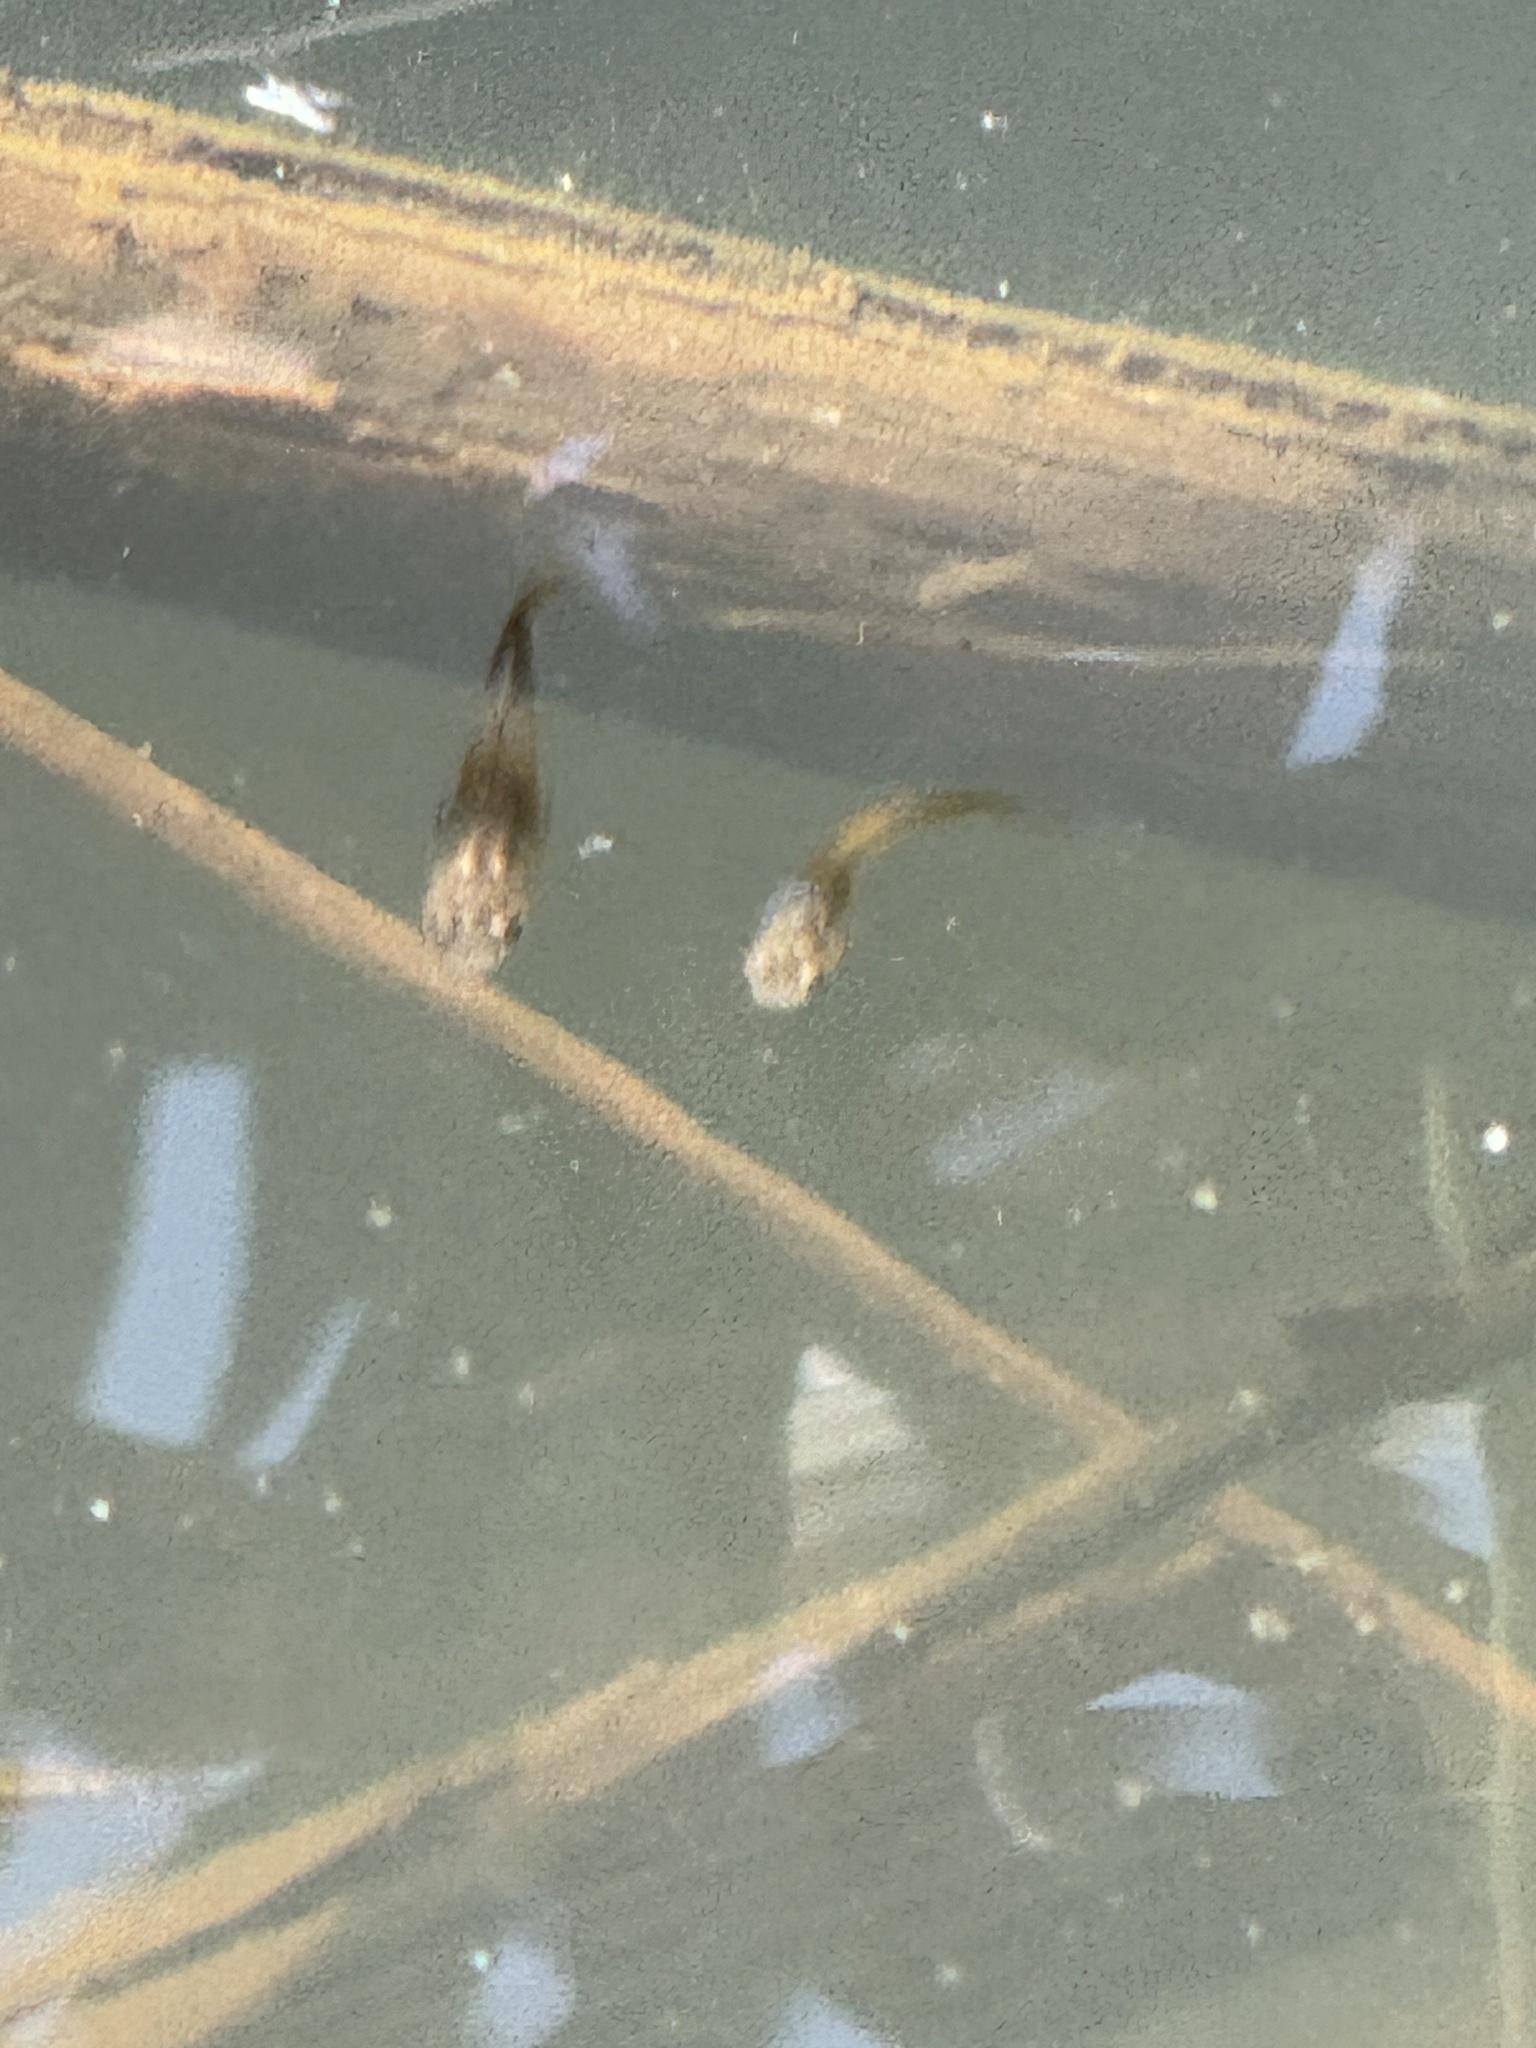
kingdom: Animalia
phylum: Chordata
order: Cyprinodontiformes
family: Poeciliidae
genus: Gambusia
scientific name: Gambusia affinis
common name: Mosquitofish
